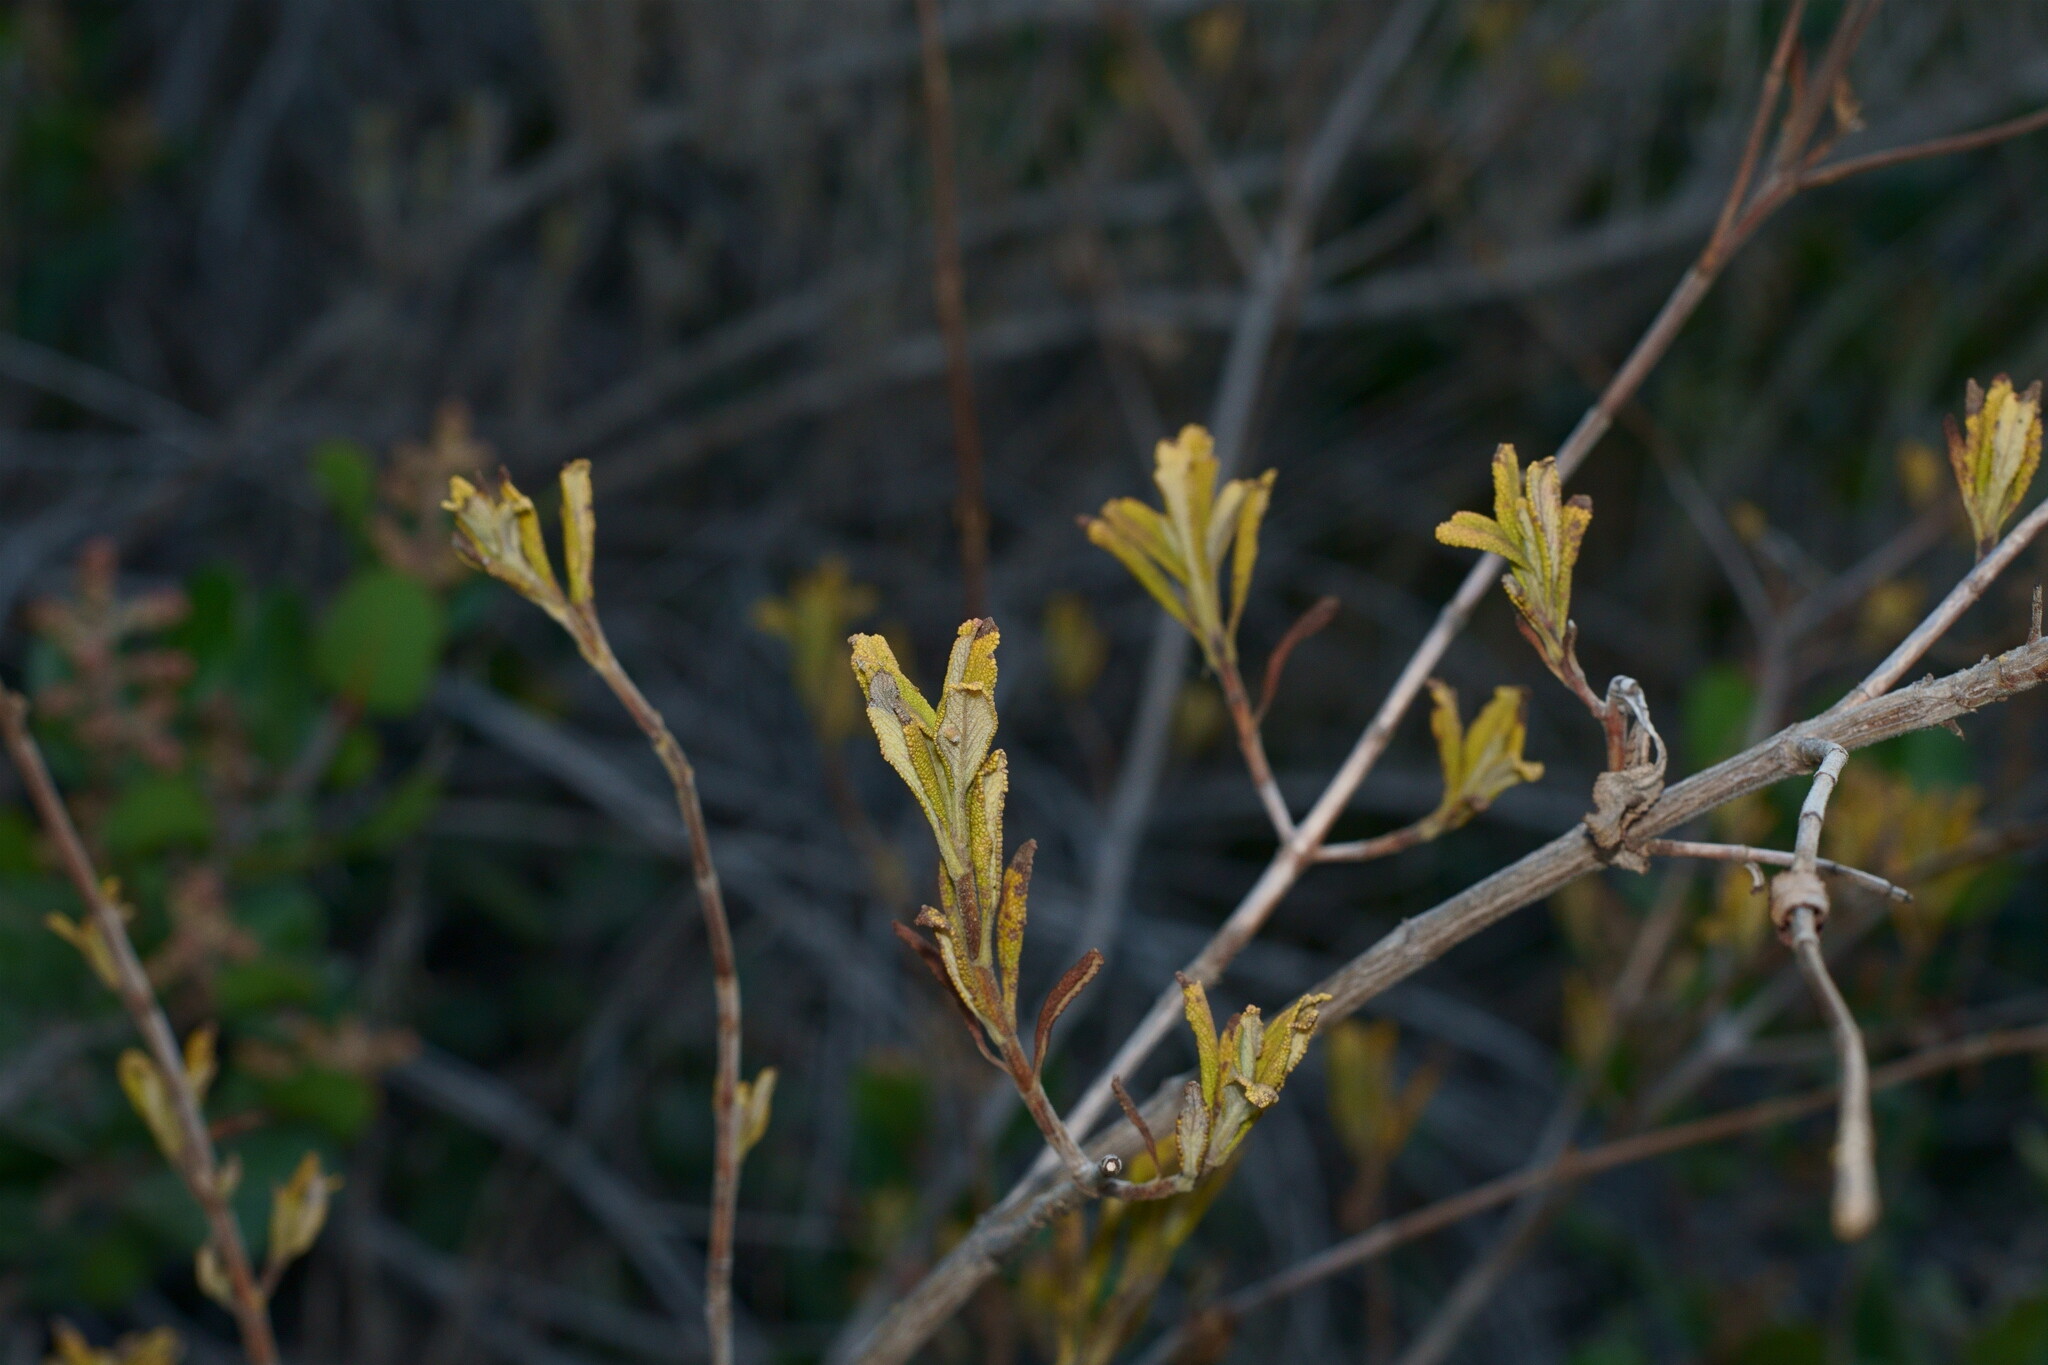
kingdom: Plantae
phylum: Tracheophyta
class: Magnoliopsida
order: Lamiales
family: Lamiaceae
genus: Salvia
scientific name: Salvia mellifera
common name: Black sage
